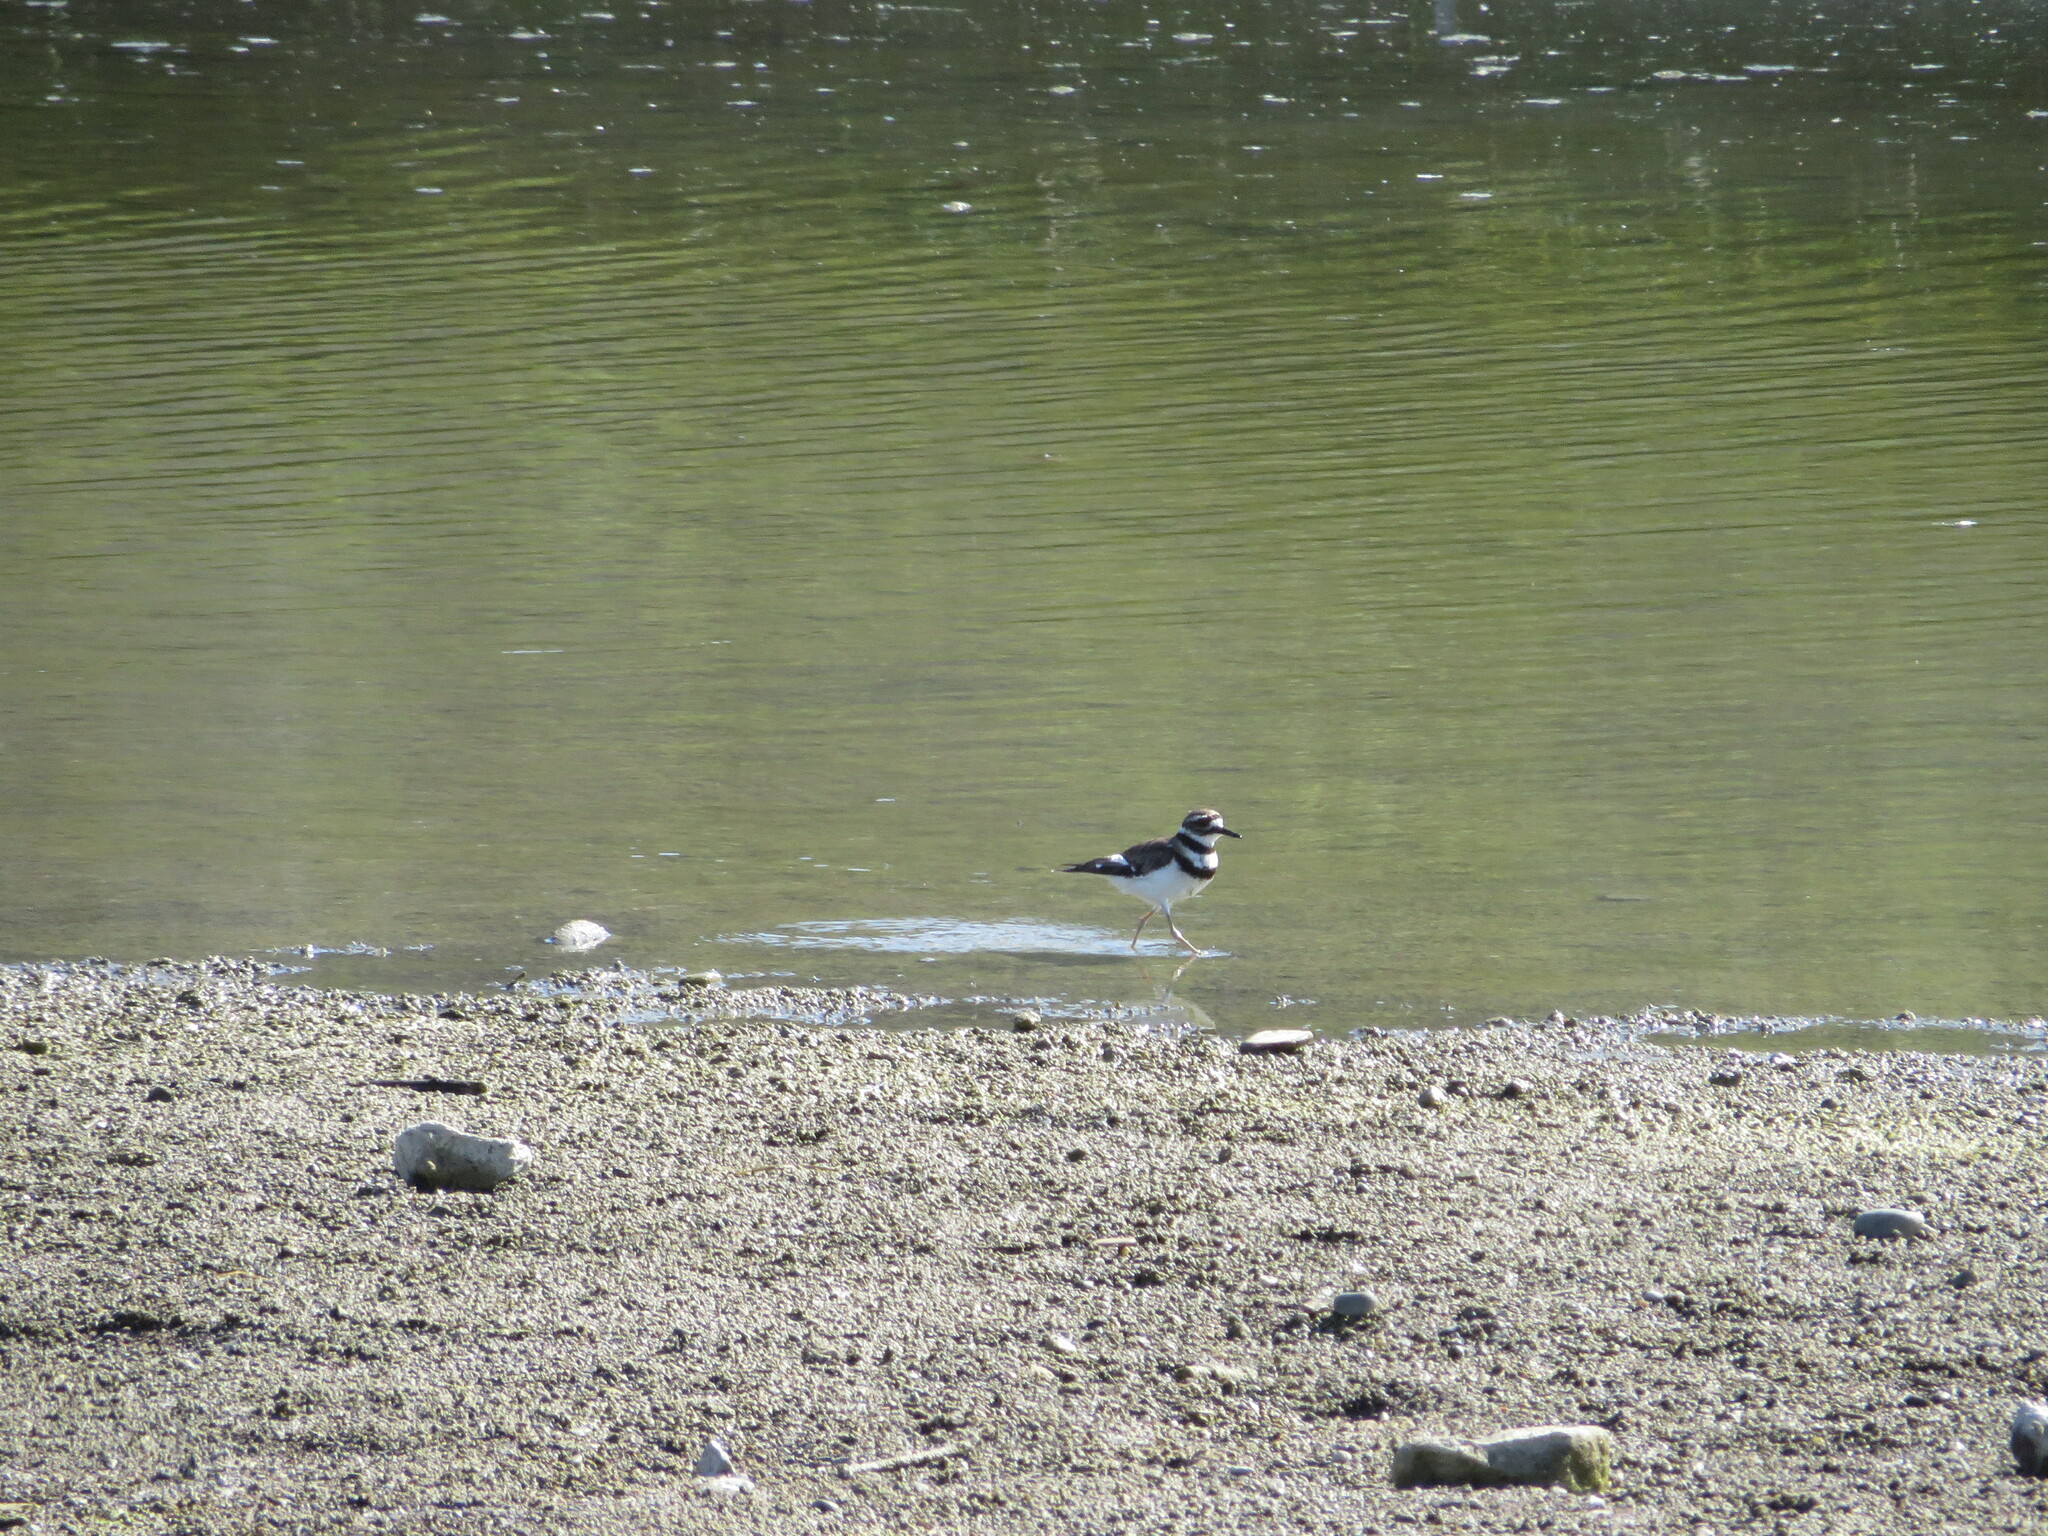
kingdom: Animalia
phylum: Chordata
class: Aves
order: Charadriiformes
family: Charadriidae
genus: Charadrius
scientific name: Charadrius vociferus
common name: Killdeer
